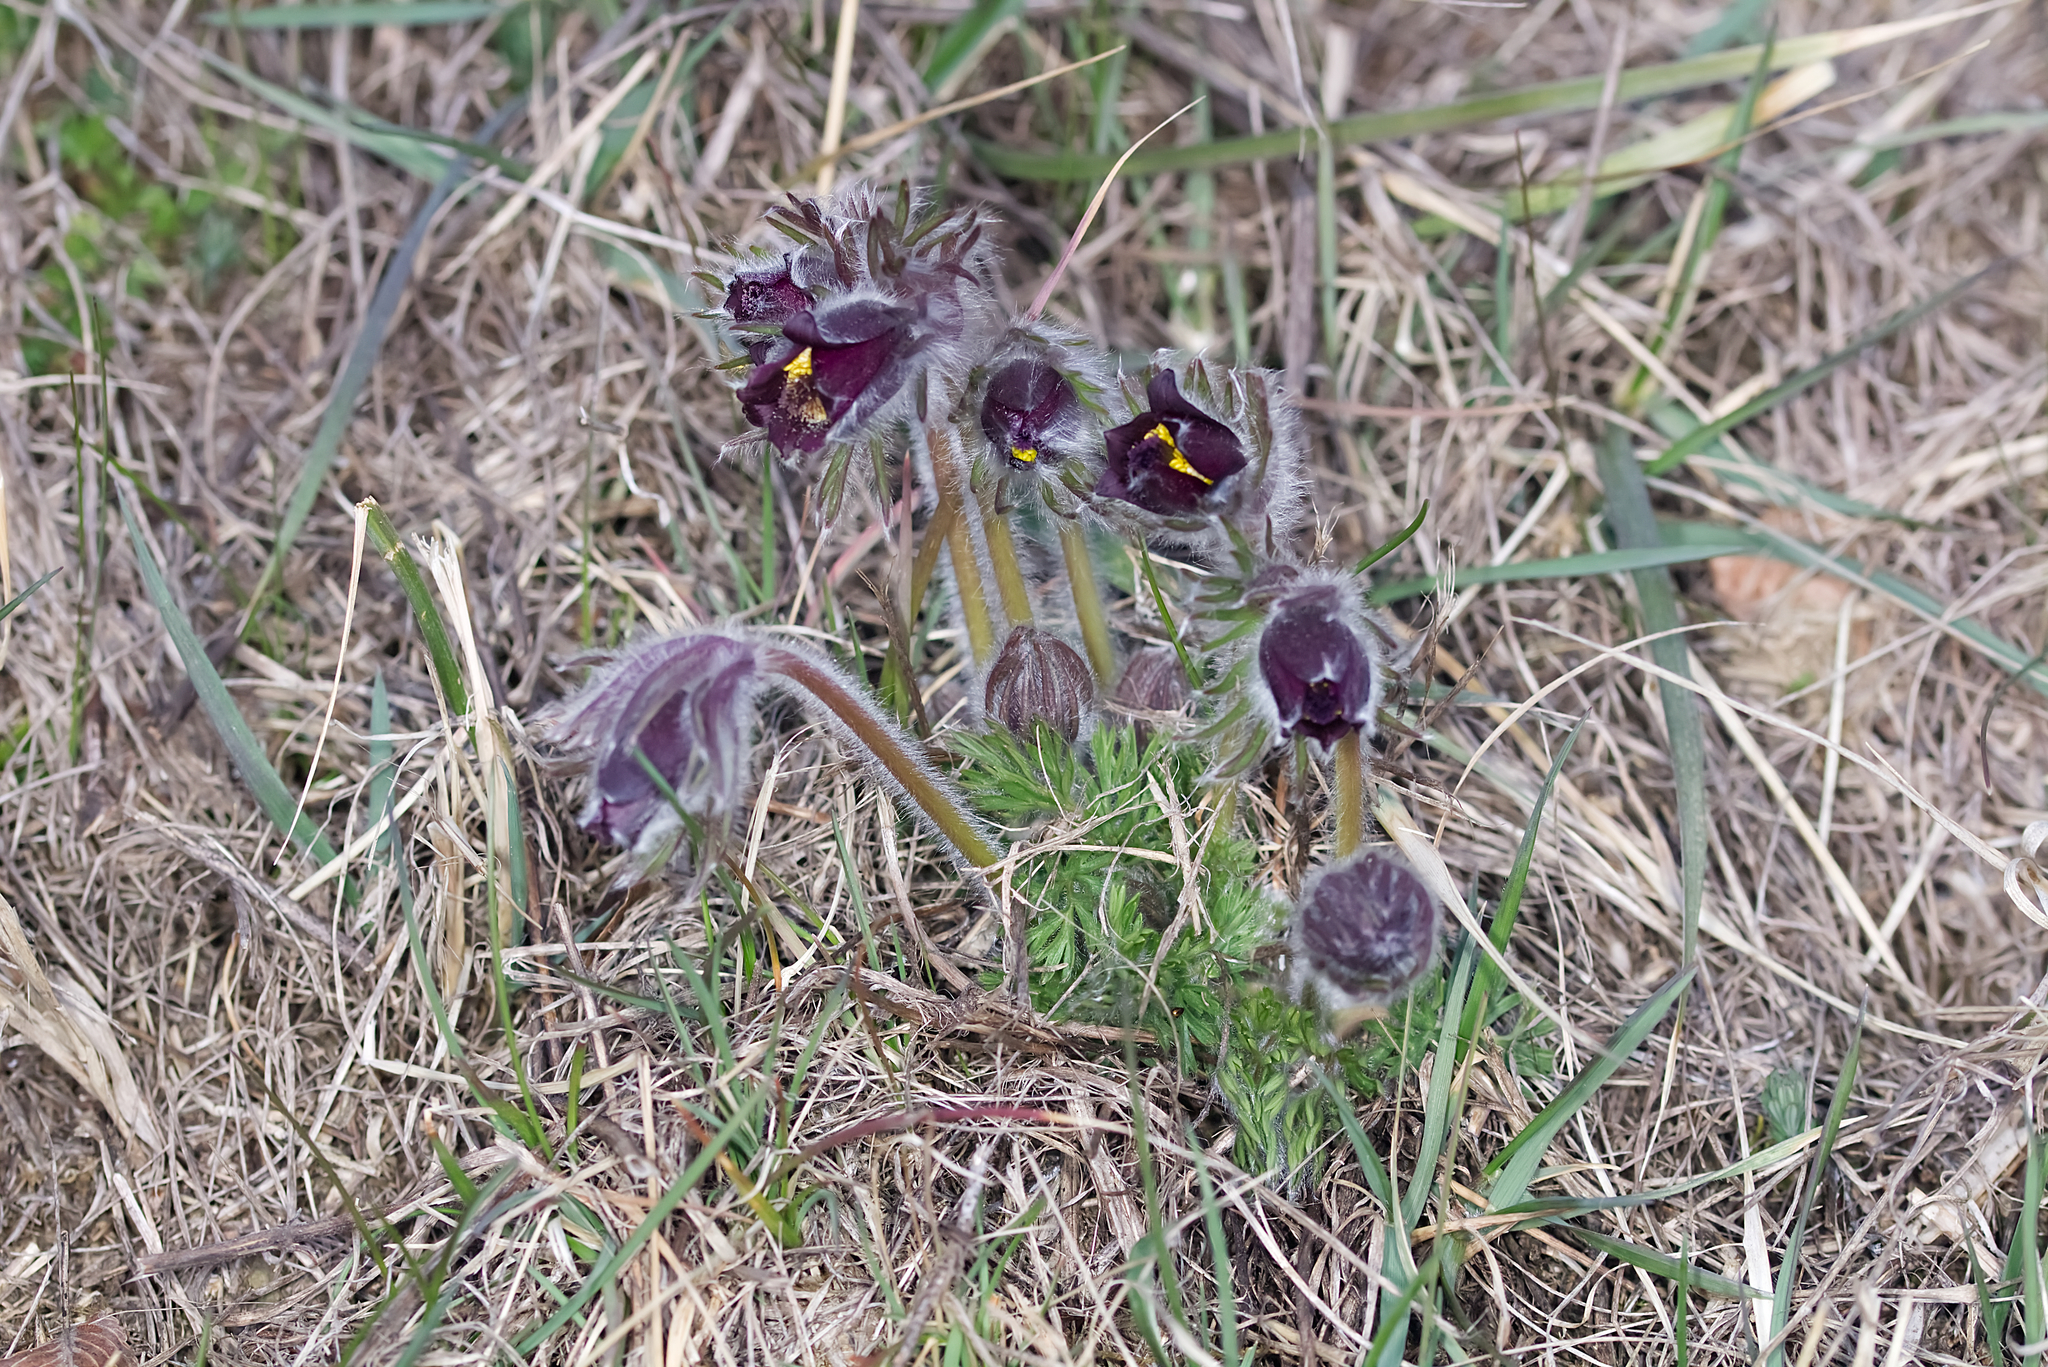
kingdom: Plantae
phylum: Tracheophyta
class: Magnoliopsida
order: Ranunculales
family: Ranunculaceae
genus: Pulsatilla
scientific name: Pulsatilla pratensis
